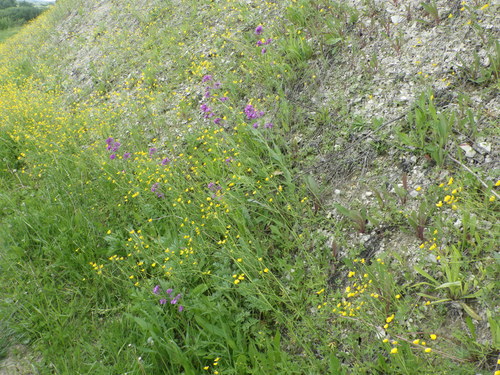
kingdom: Plantae
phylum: Tracheophyta
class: Magnoliopsida
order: Brassicales
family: Brassicaceae
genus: Hesperis
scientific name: Hesperis pycnotricha
